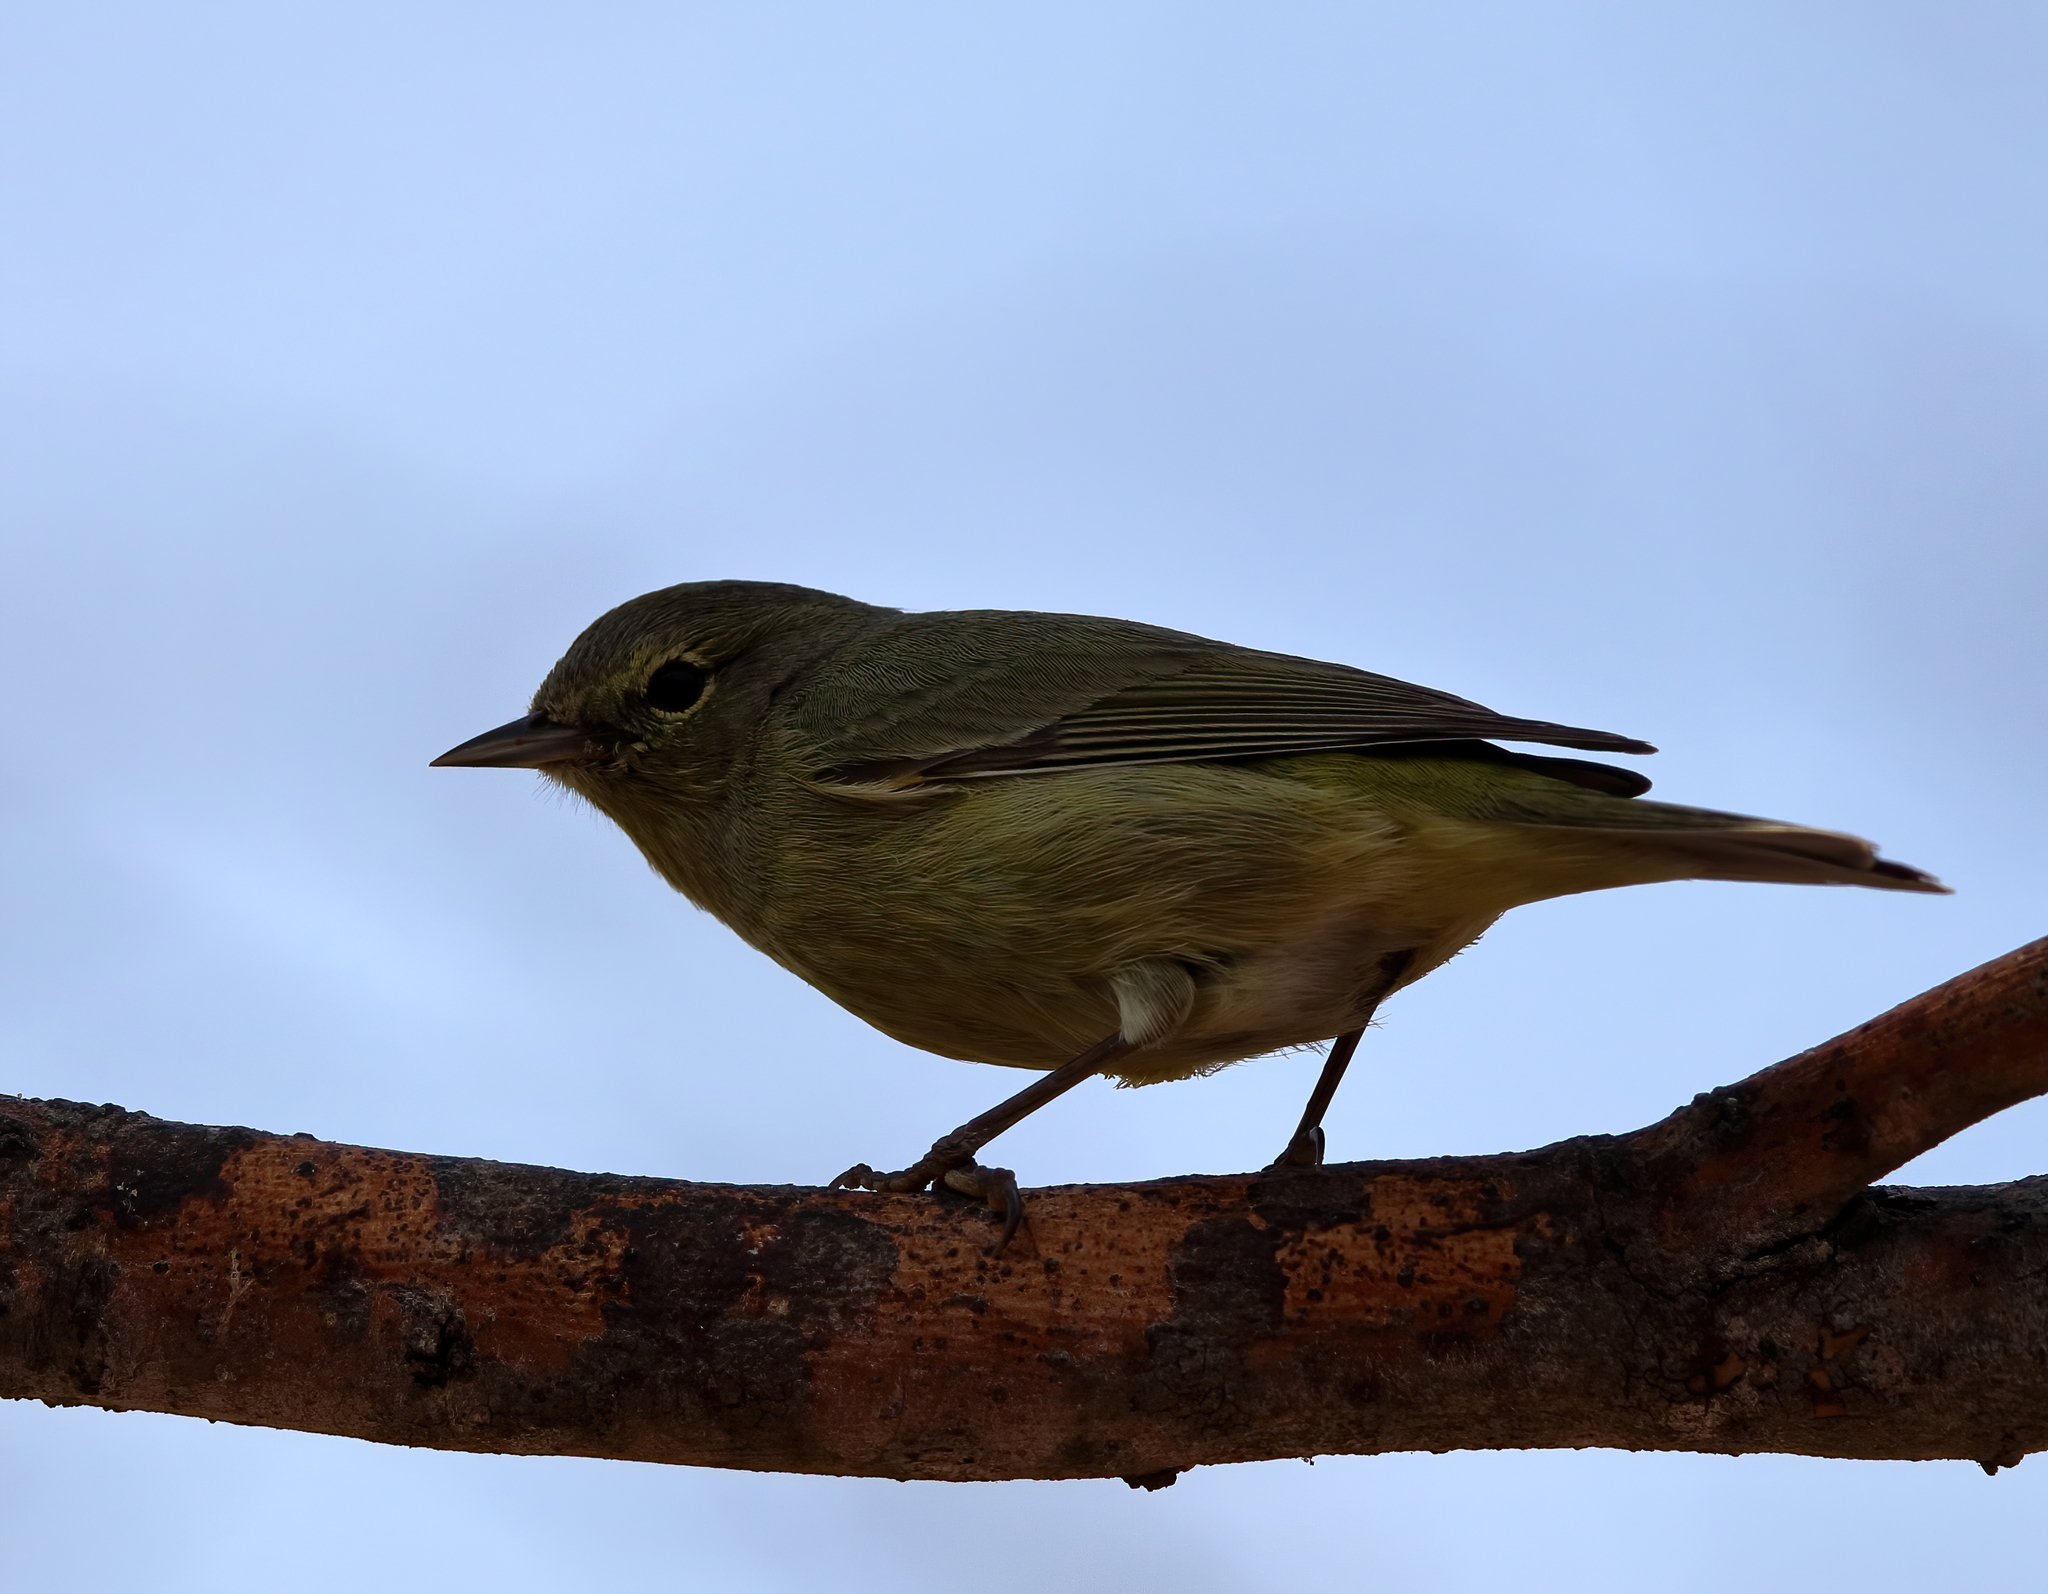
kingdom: Animalia
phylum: Chordata
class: Aves
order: Passeriformes
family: Parulidae
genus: Leiothlypis
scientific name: Leiothlypis celata
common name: Orange-crowned warbler
